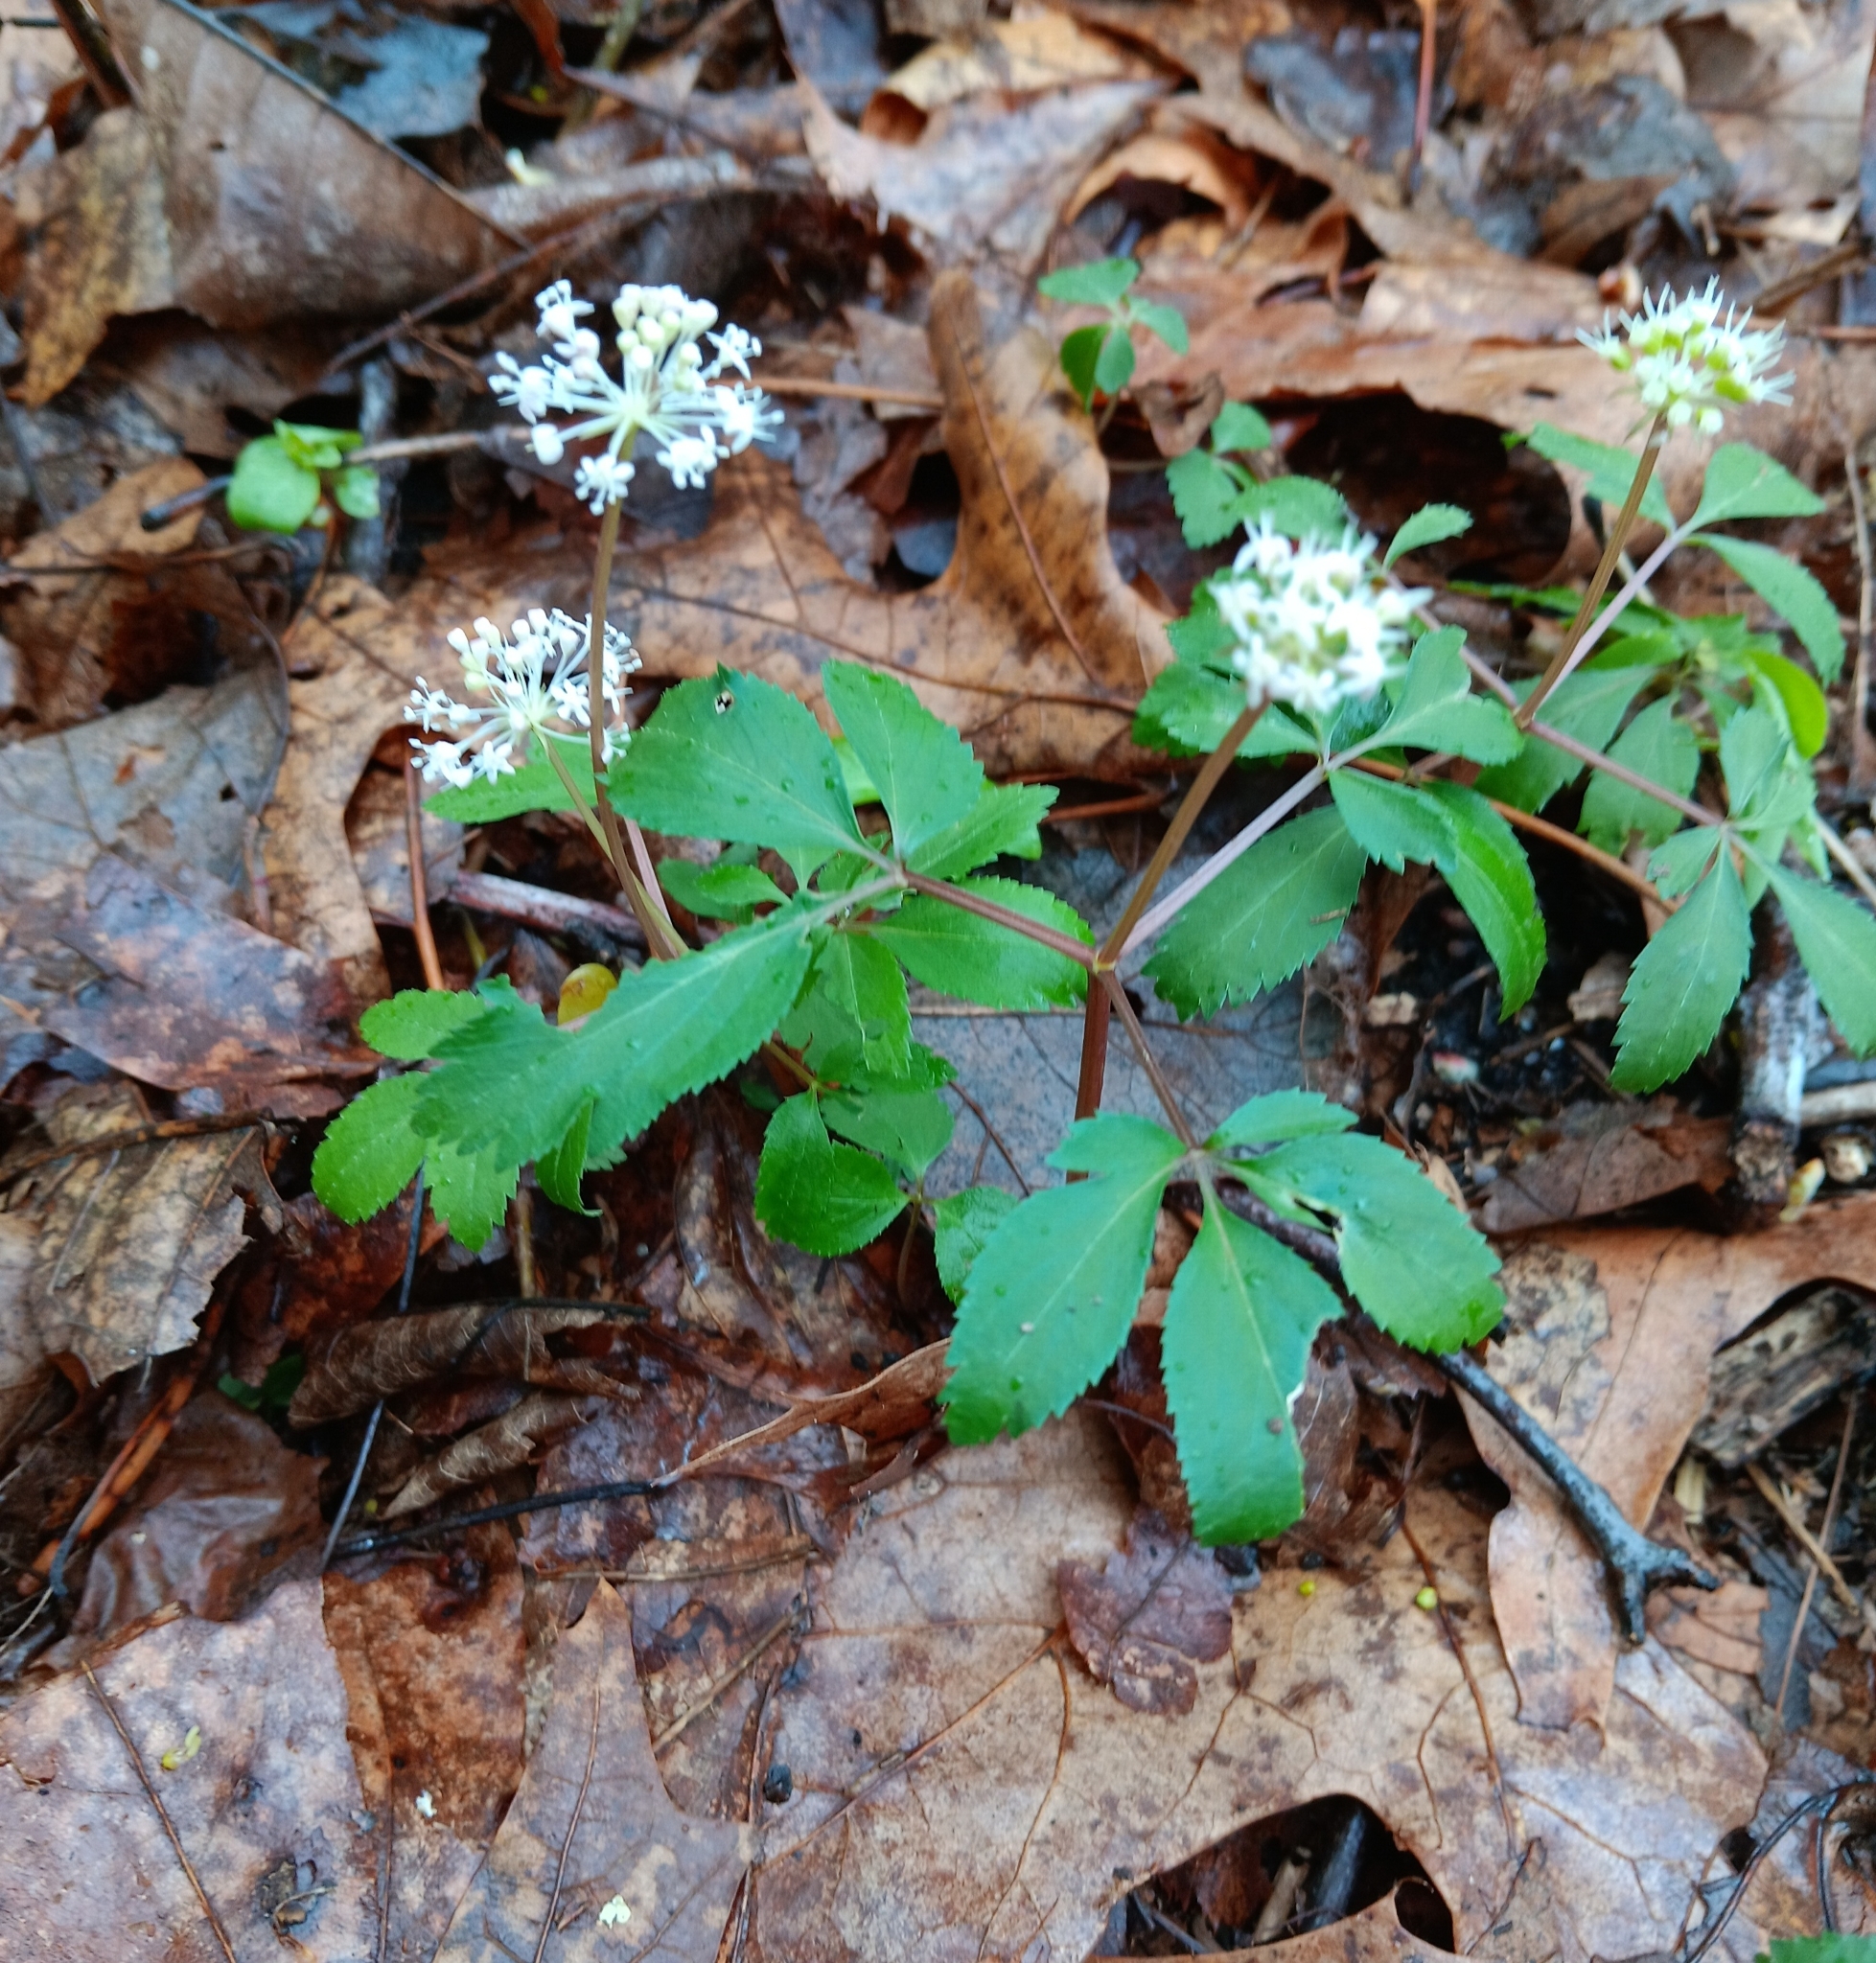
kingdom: Plantae
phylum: Tracheophyta
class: Magnoliopsida
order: Apiales
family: Araliaceae
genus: Panax
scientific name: Panax trifolius
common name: Dwarf ginseng
